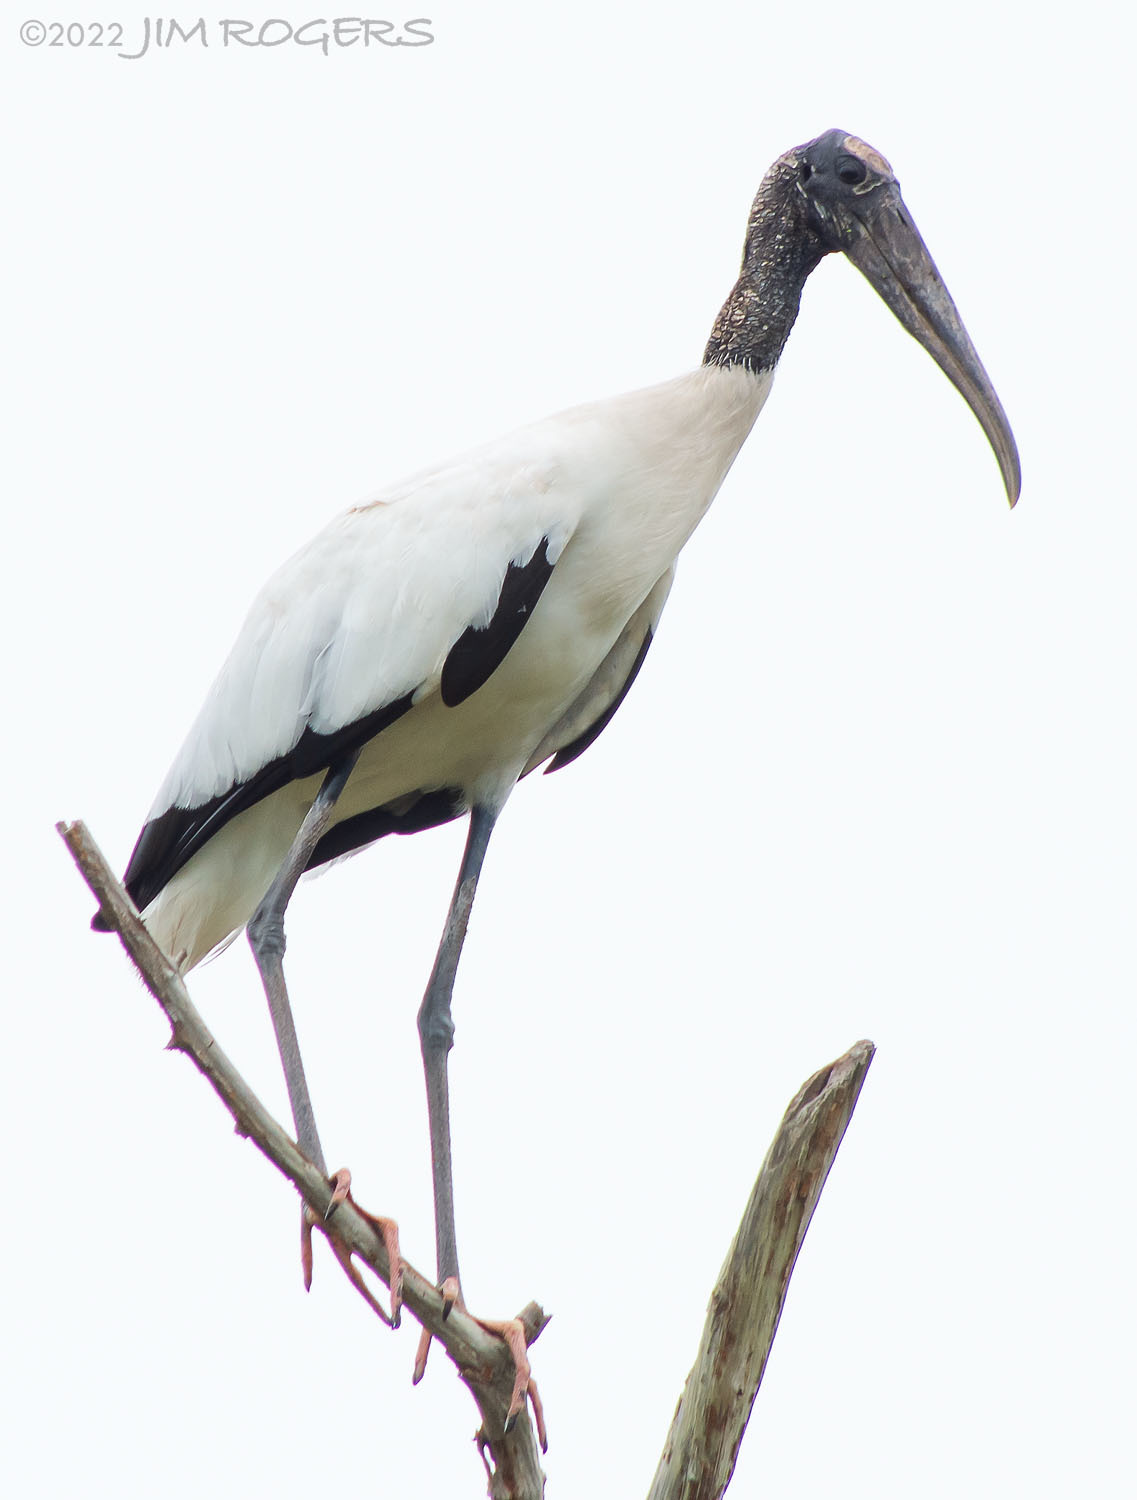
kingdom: Animalia
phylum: Chordata
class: Aves
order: Ciconiiformes
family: Ciconiidae
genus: Mycteria
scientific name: Mycteria americana
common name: Wood stork
